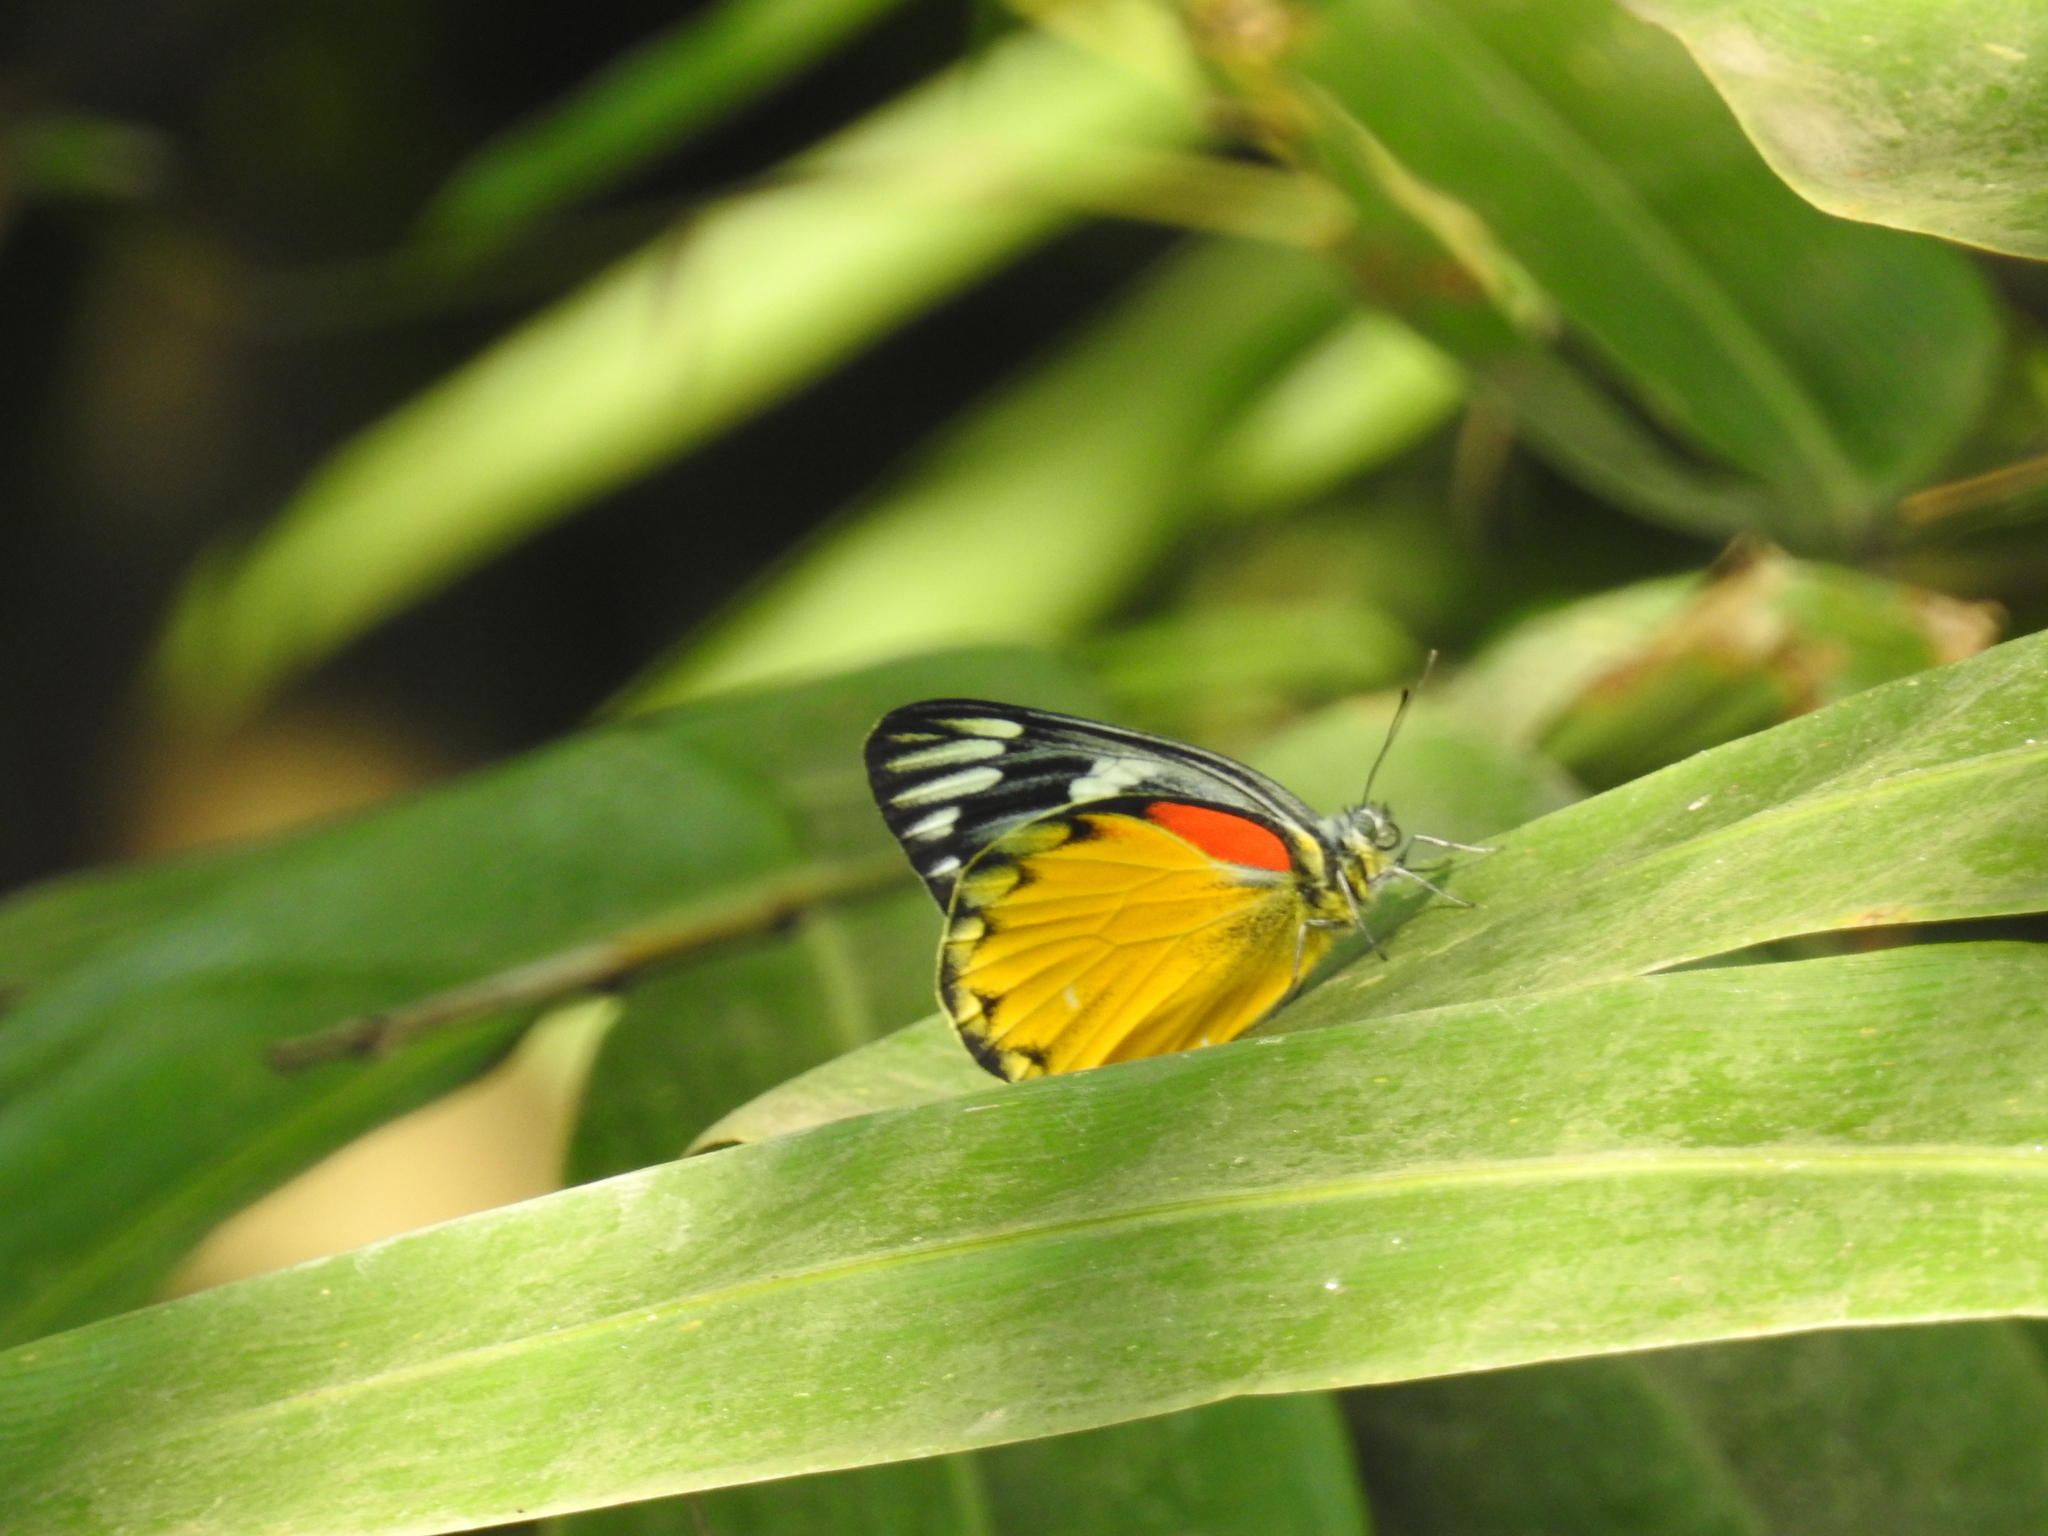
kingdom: Animalia
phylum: Arthropoda
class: Insecta
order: Lepidoptera
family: Pieridae
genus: Delias
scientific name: Delias descombesi
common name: Red-spot jezebel
